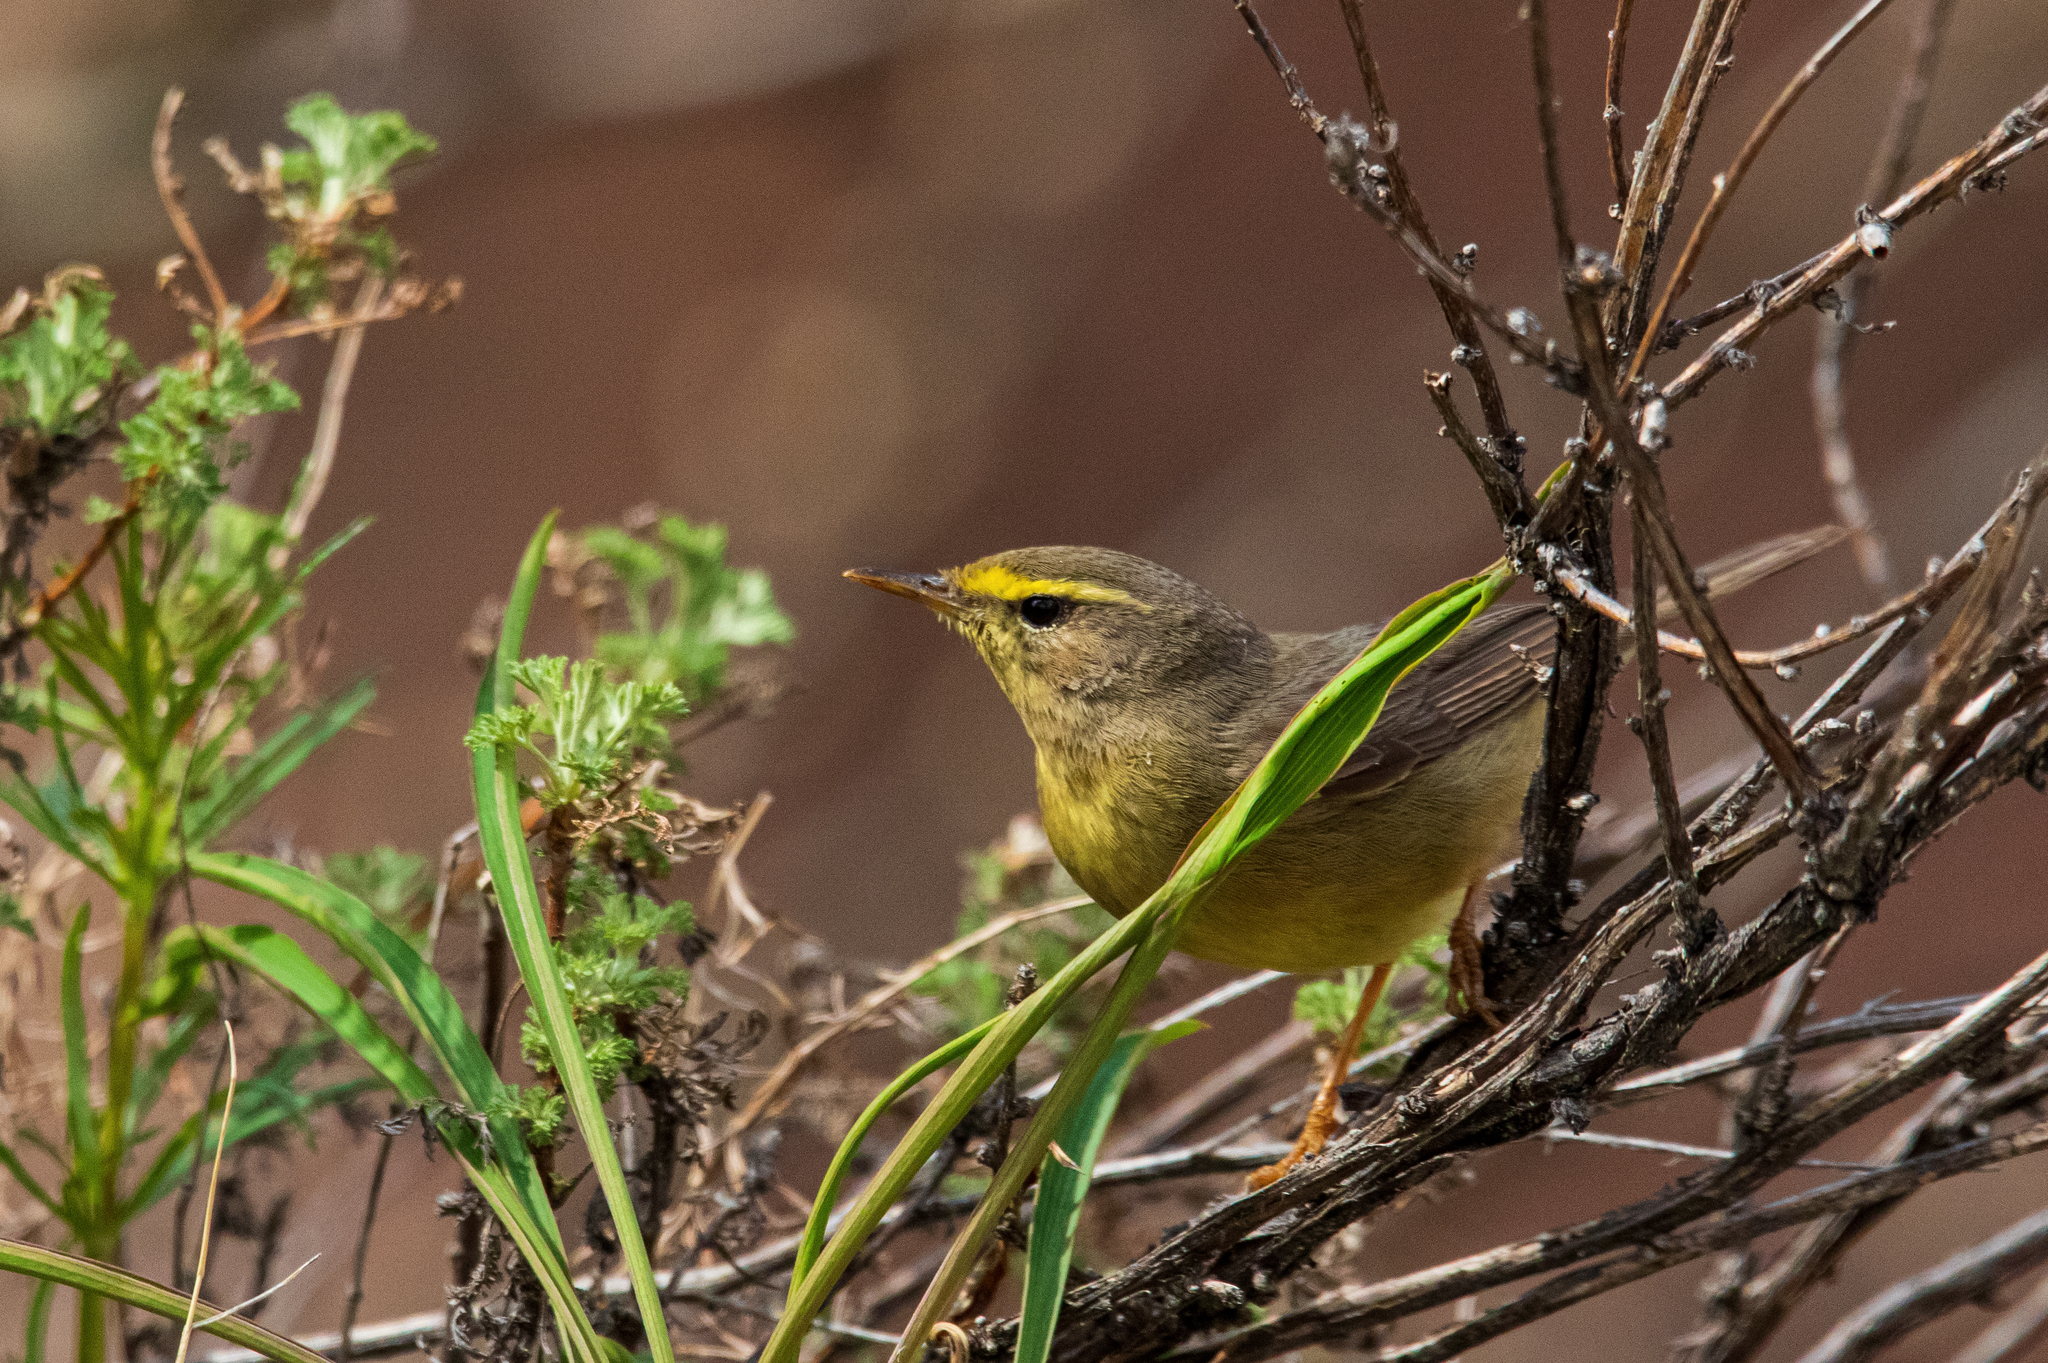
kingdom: Animalia
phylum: Chordata
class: Aves
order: Passeriformes
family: Phylloscopidae
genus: Phylloscopus
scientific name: Phylloscopus griseolus
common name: Sulphur-bellied warbler
